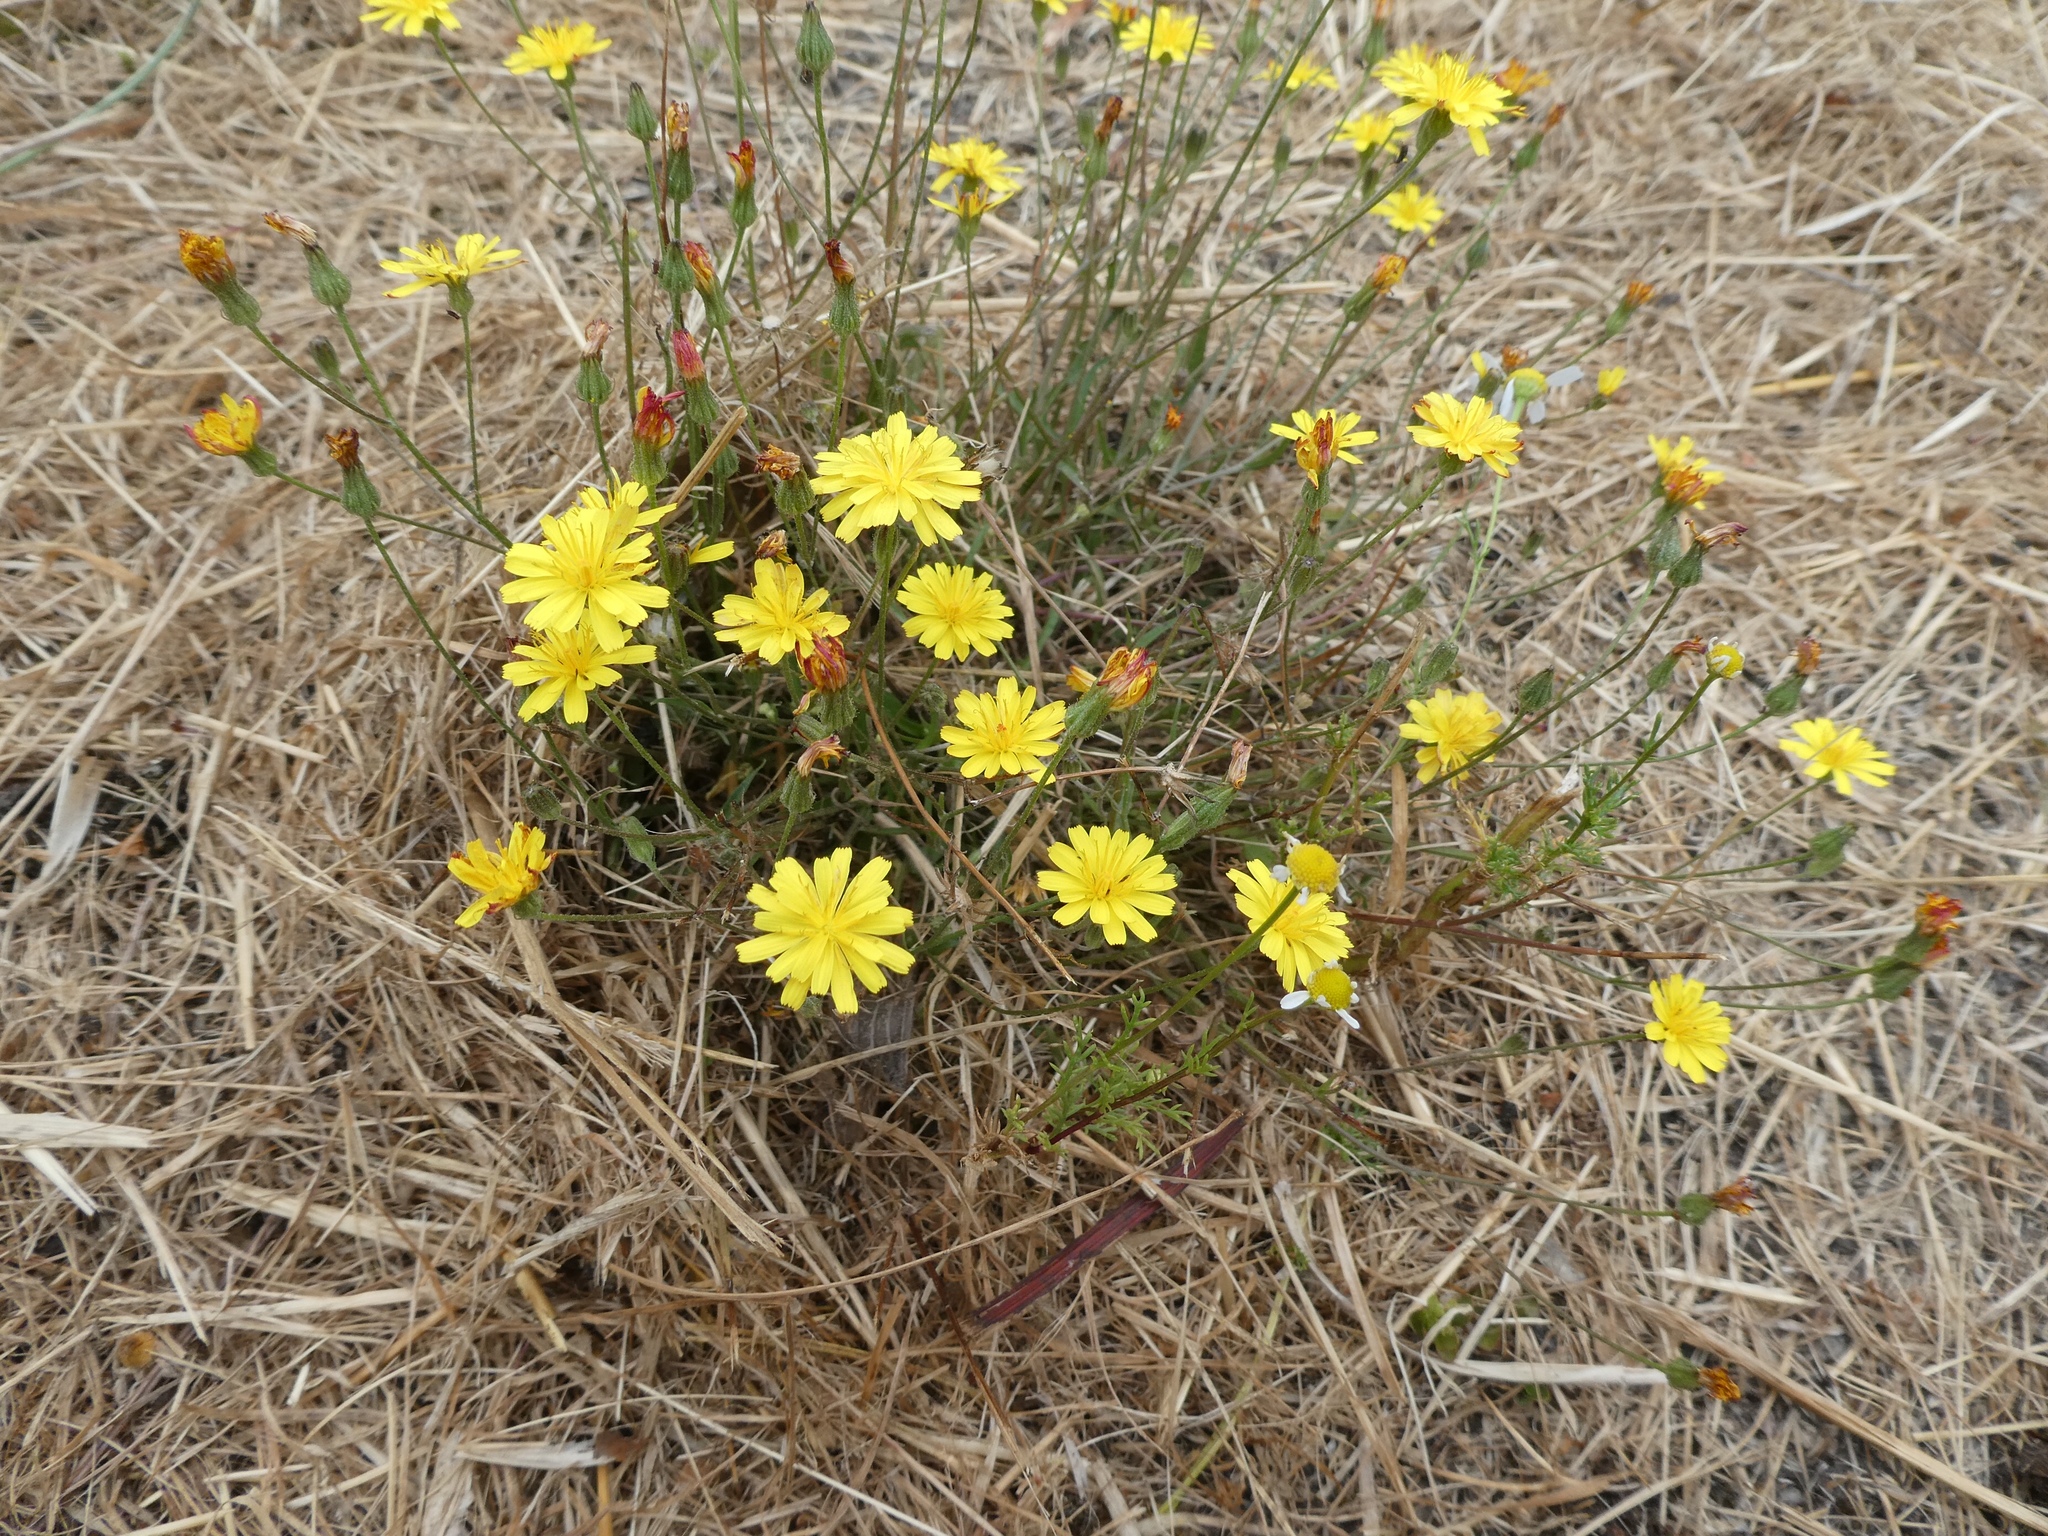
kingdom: Plantae
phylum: Tracheophyta
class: Magnoliopsida
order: Asterales
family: Asteraceae
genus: Crepis
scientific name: Crepis capillaris
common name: Smooth hawksbeard
